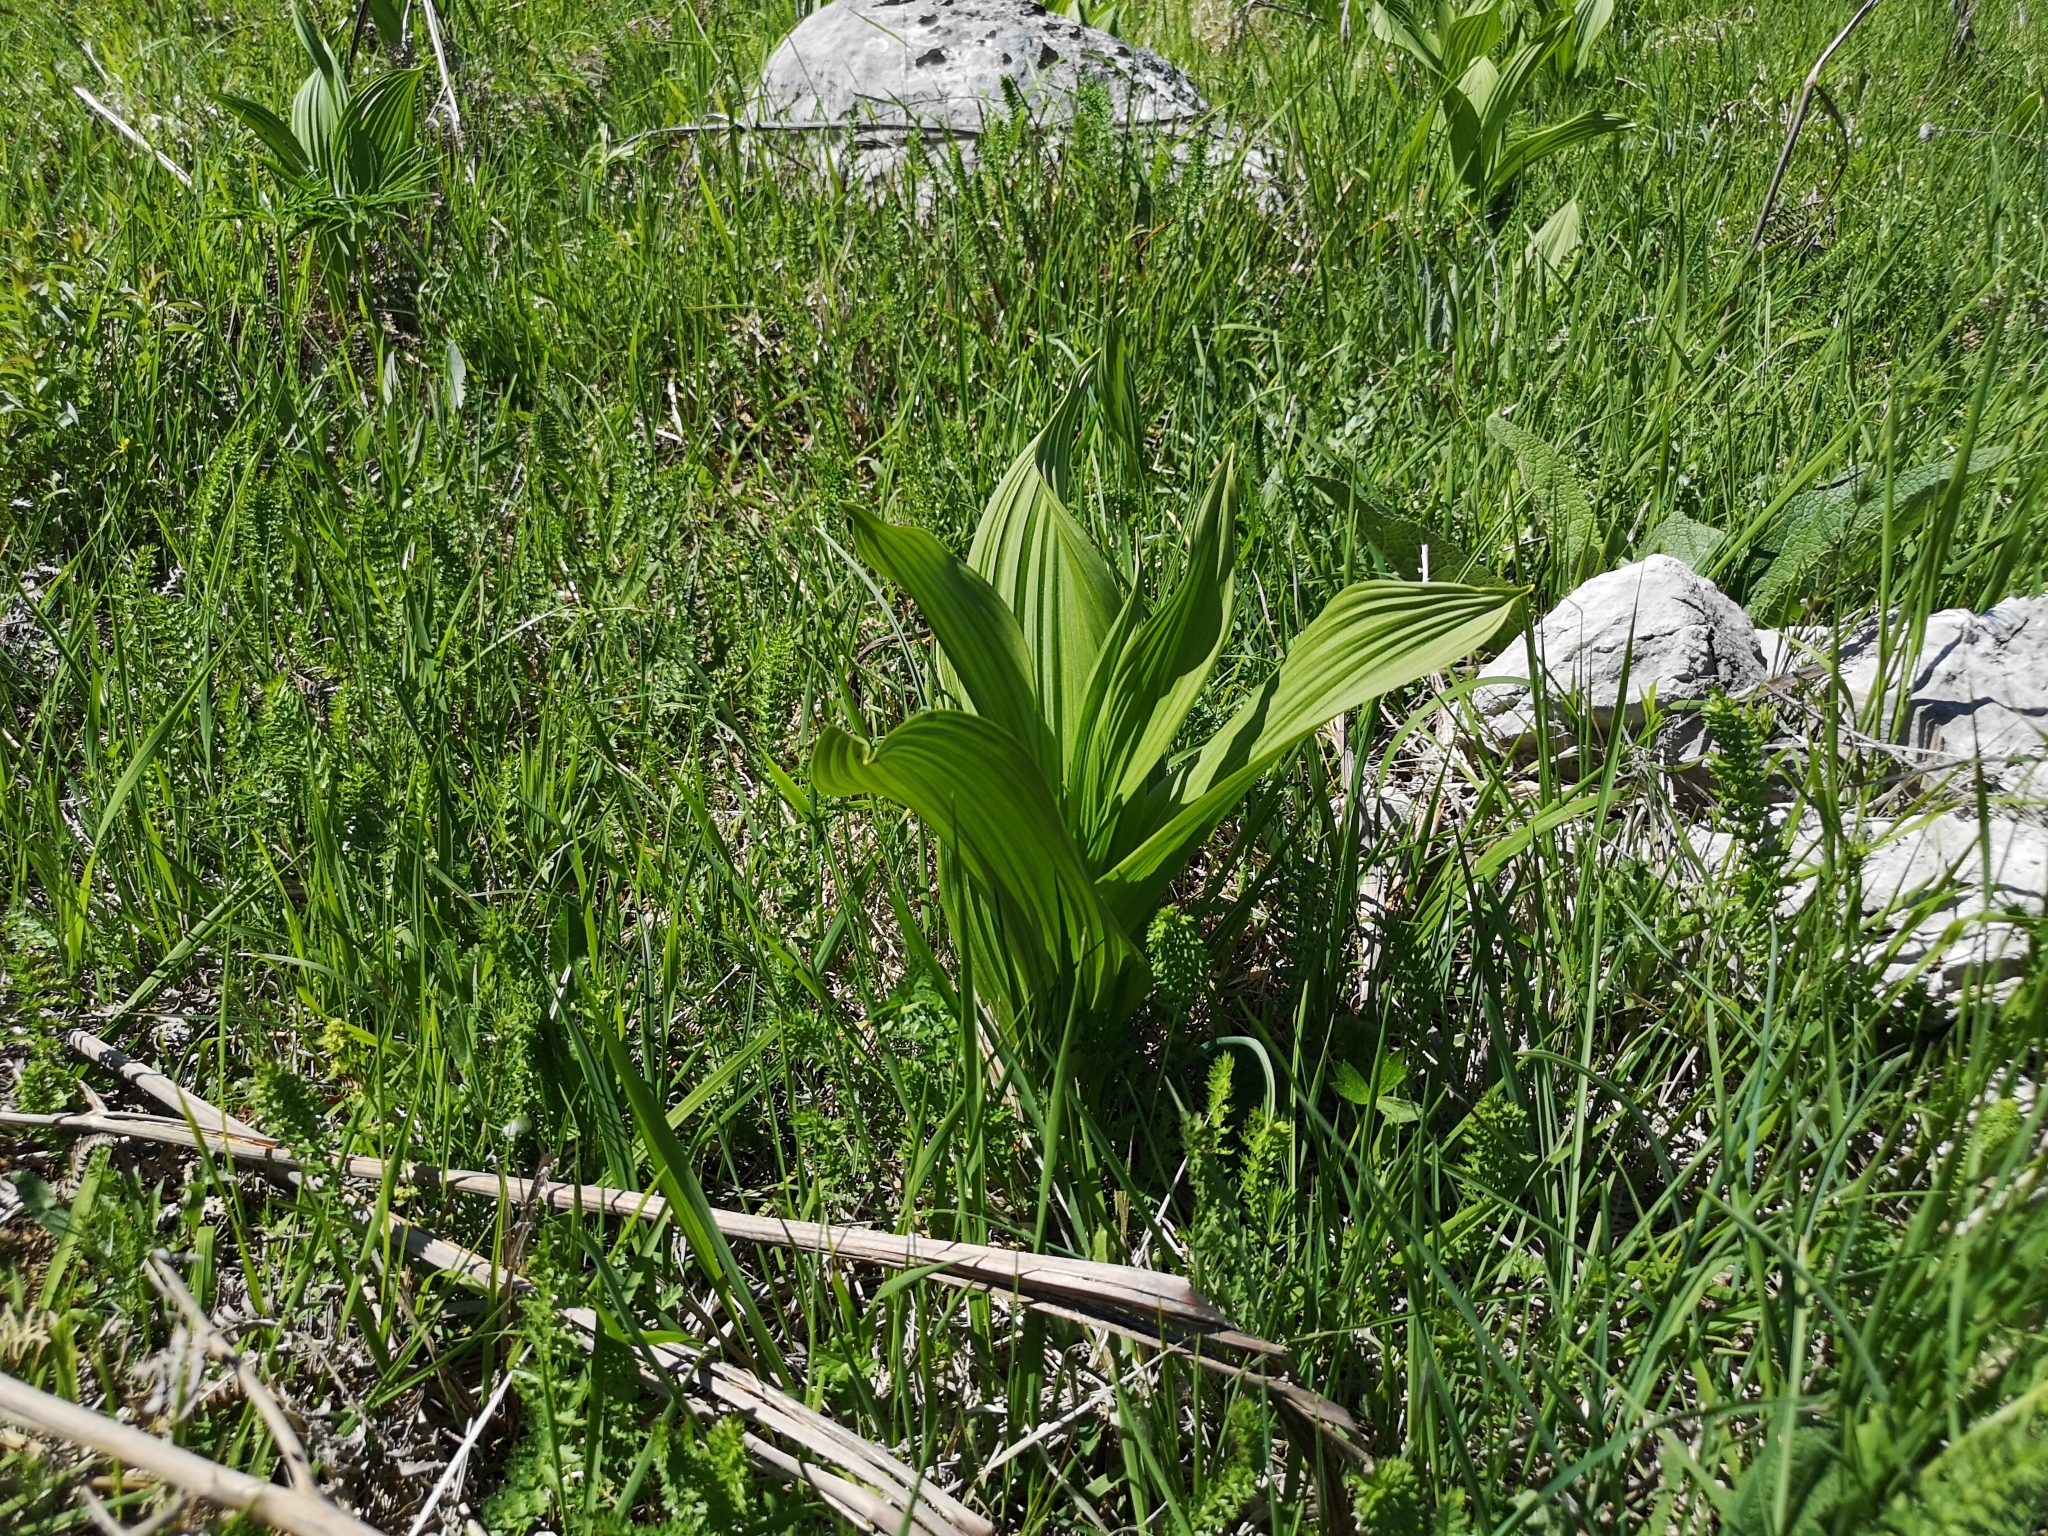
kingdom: Plantae
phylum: Tracheophyta
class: Liliopsida
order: Liliales
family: Melanthiaceae
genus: Veratrum
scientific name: Veratrum album
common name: White veratrum
